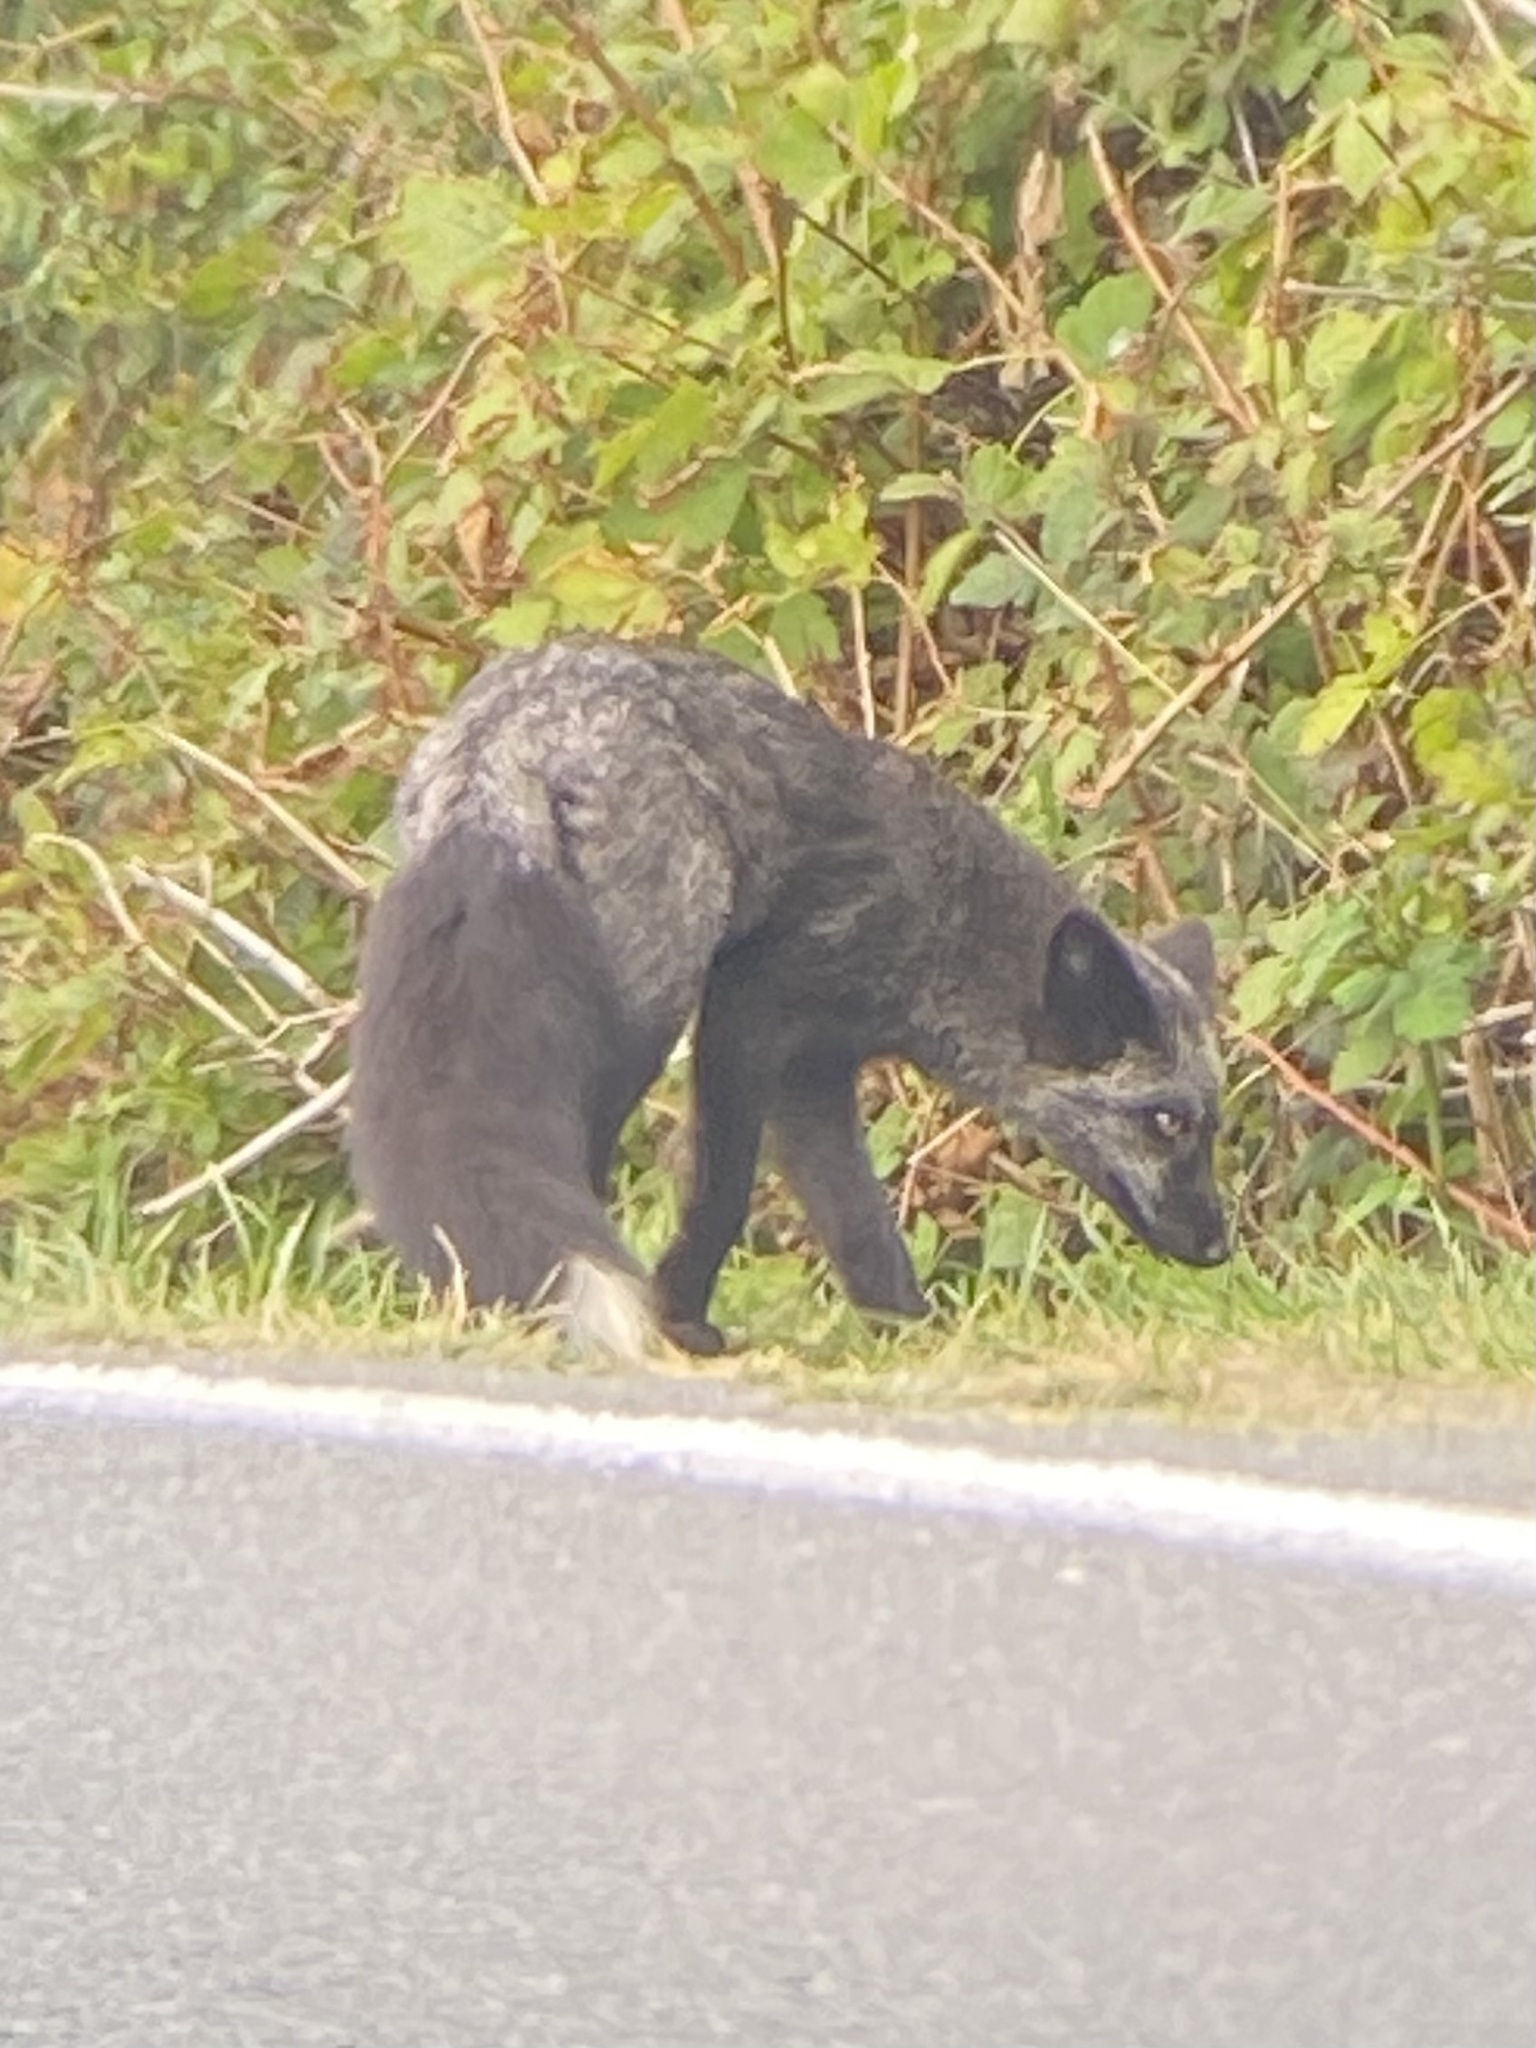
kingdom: Animalia
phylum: Chordata
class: Mammalia
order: Carnivora
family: Canidae
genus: Vulpes
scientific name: Vulpes vulpes
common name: Red fox
